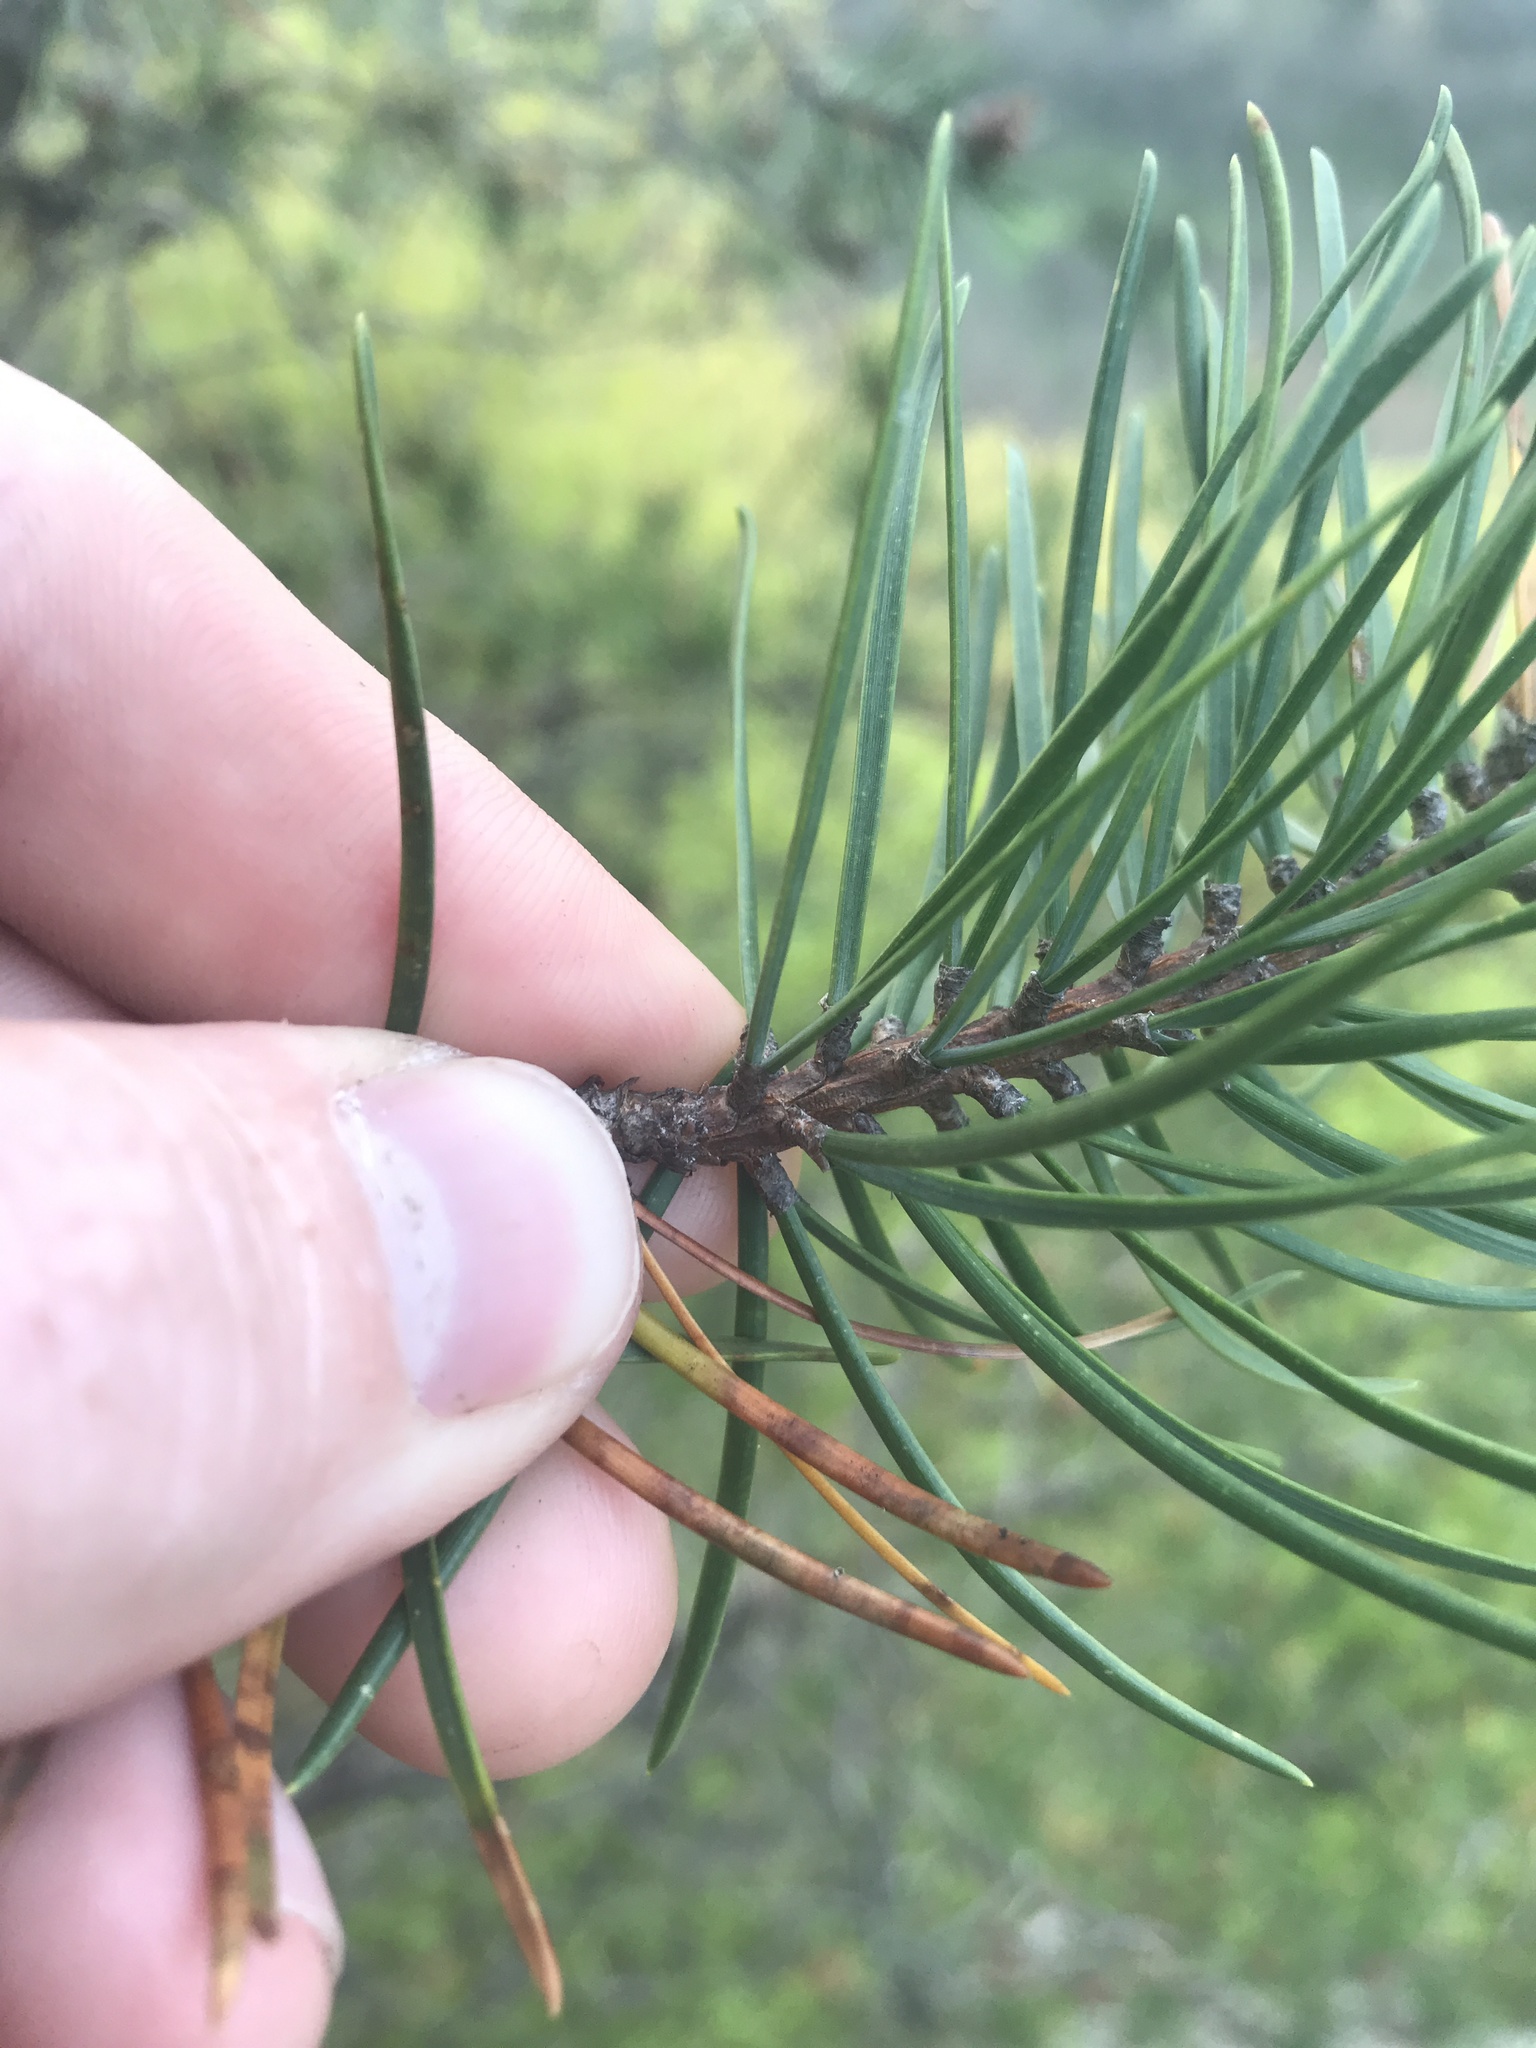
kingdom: Plantae
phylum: Tracheophyta
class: Pinopsida
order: Pinales
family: Pinaceae
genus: Pinus
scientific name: Pinus banksiana
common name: Jack pine
